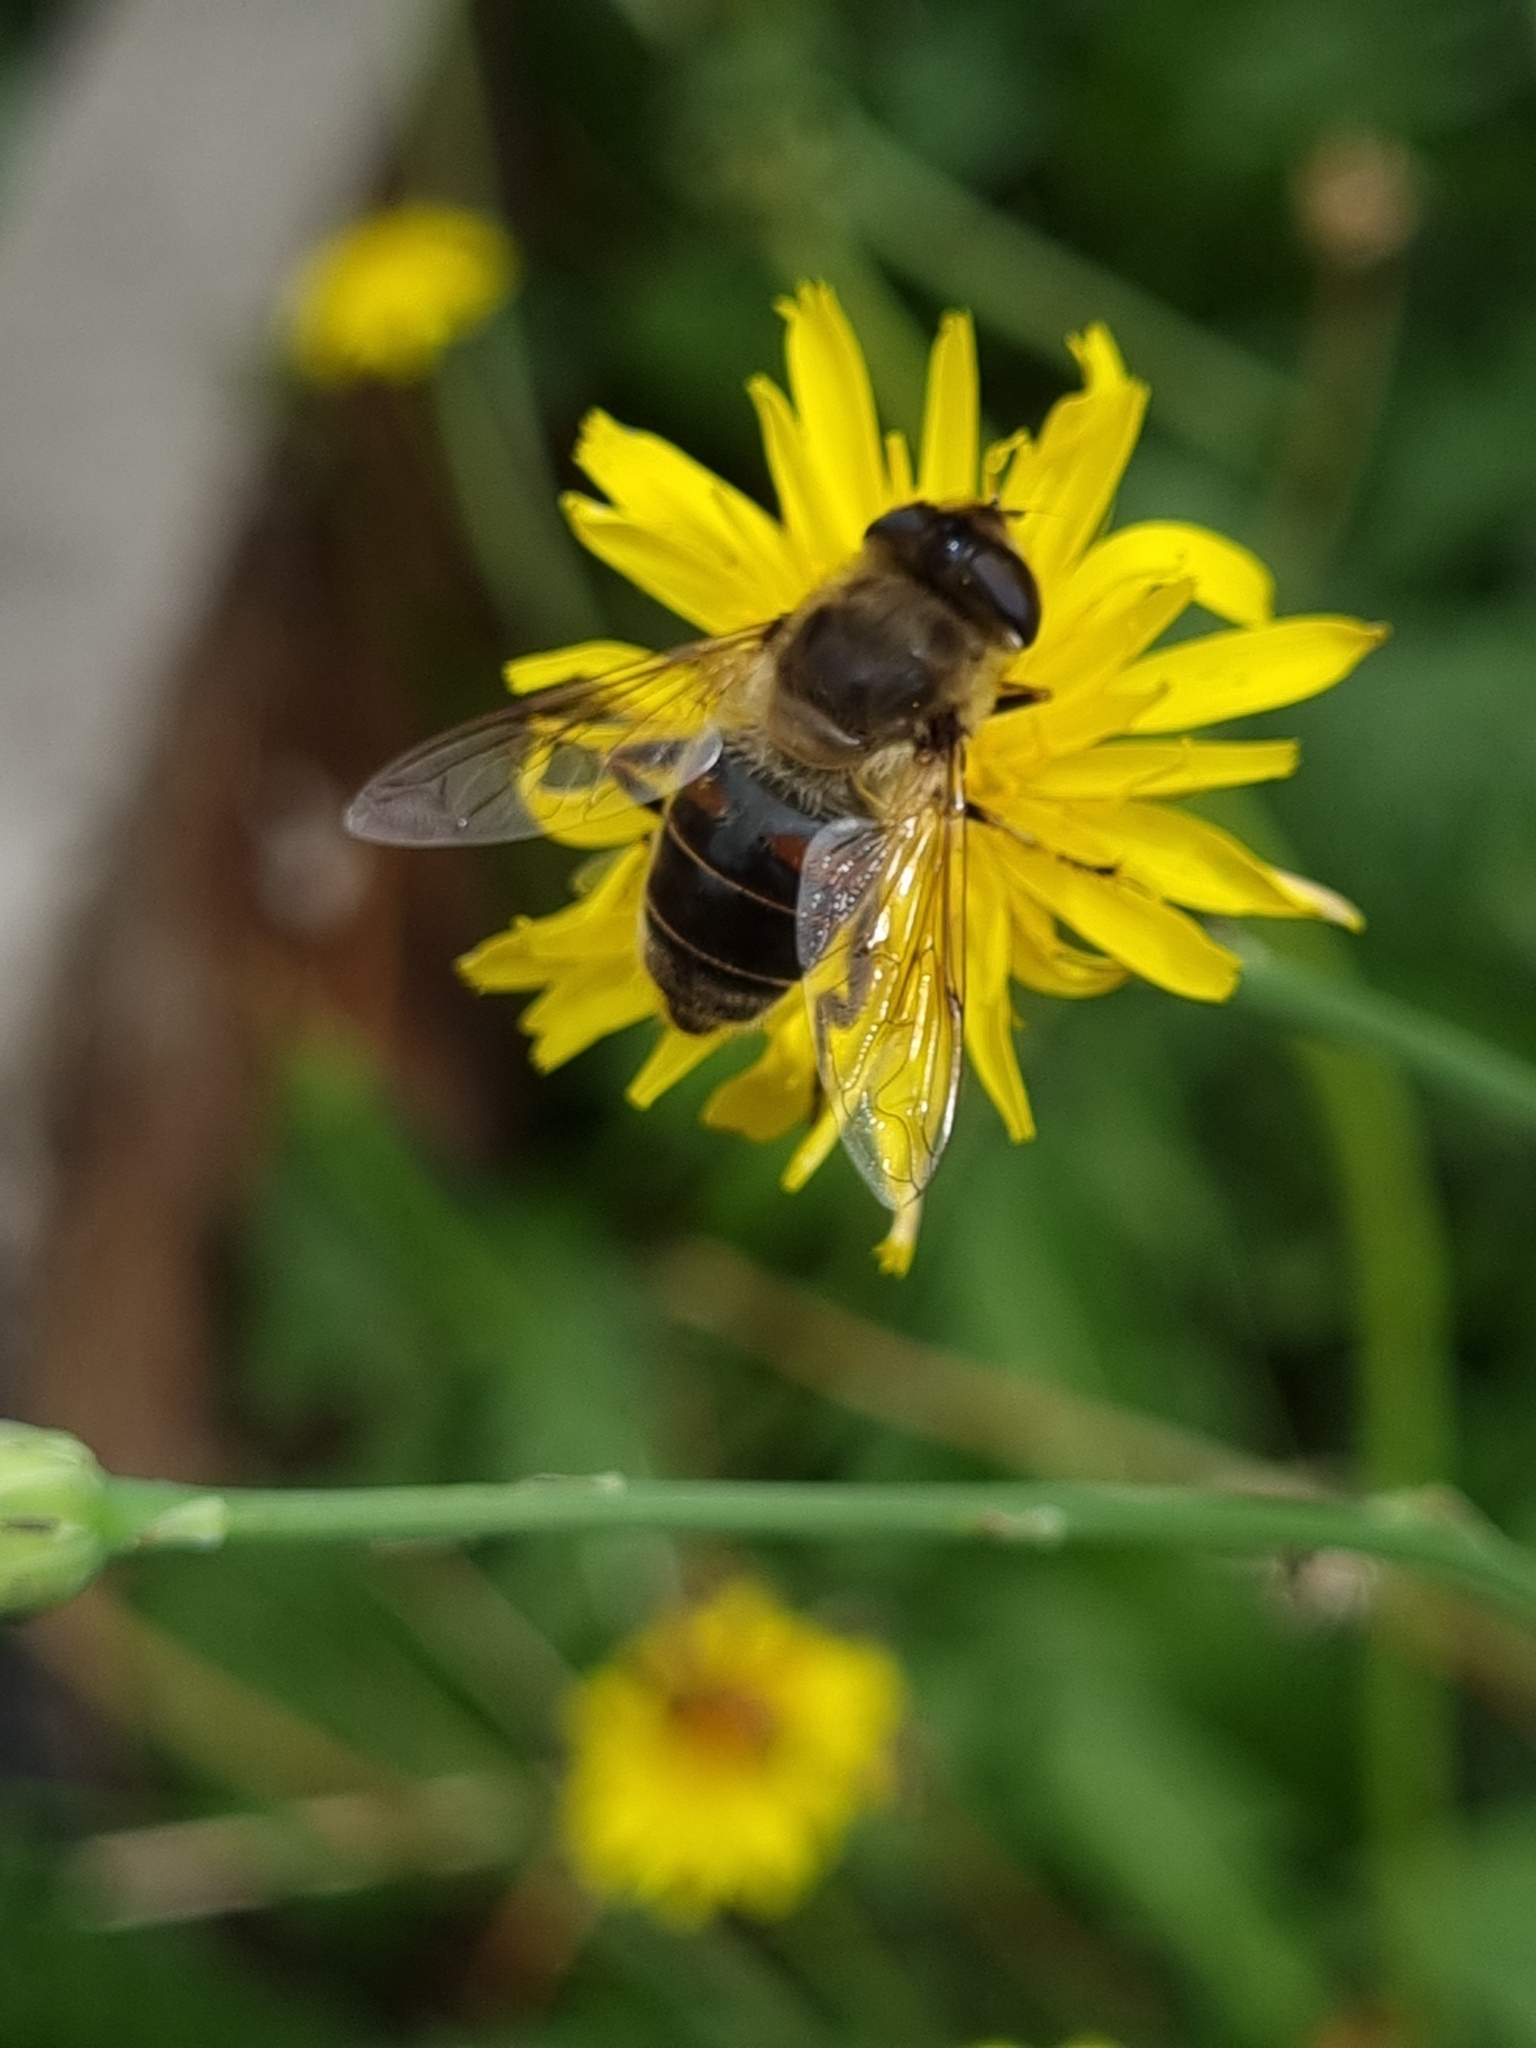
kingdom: Animalia
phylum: Arthropoda
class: Insecta
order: Diptera
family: Syrphidae
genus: Eristalis
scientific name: Eristalis tenax
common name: Drone fly
